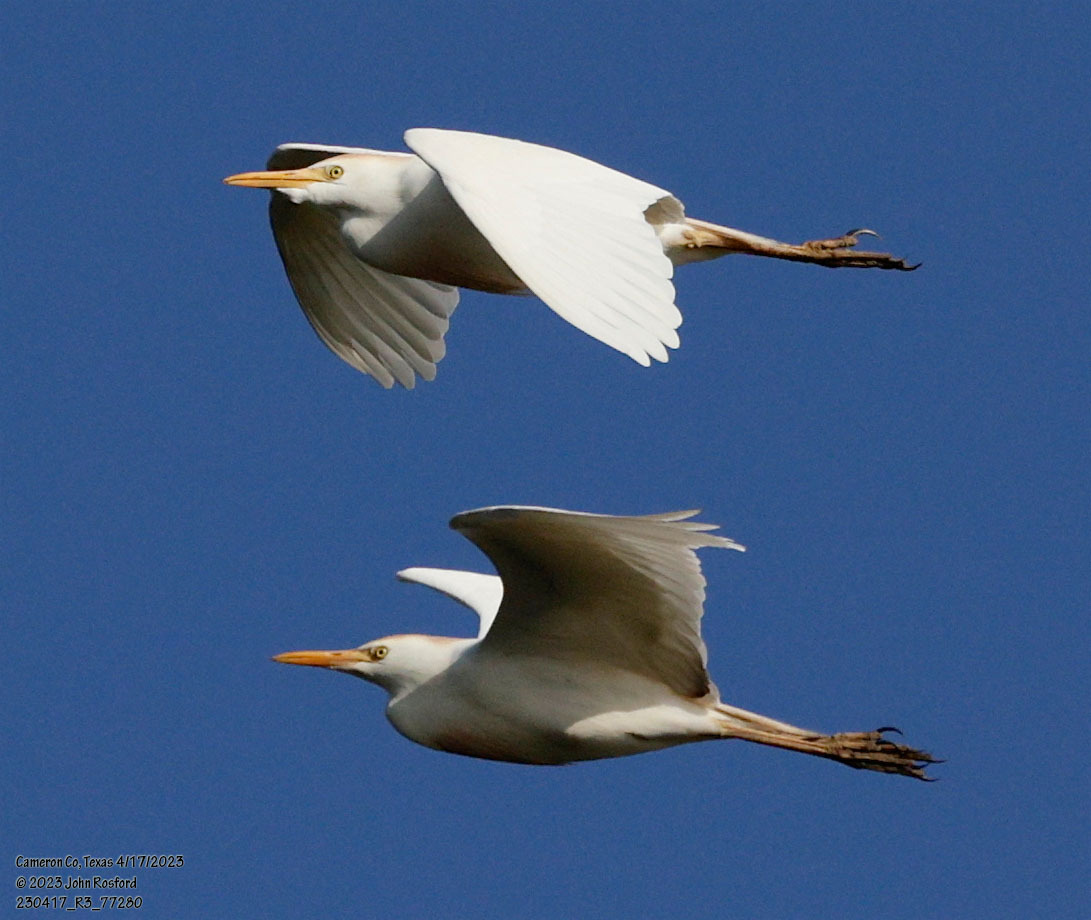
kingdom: Animalia
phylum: Chordata
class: Aves
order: Pelecaniformes
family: Ardeidae
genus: Bubulcus
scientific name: Bubulcus ibis
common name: Cattle egret
